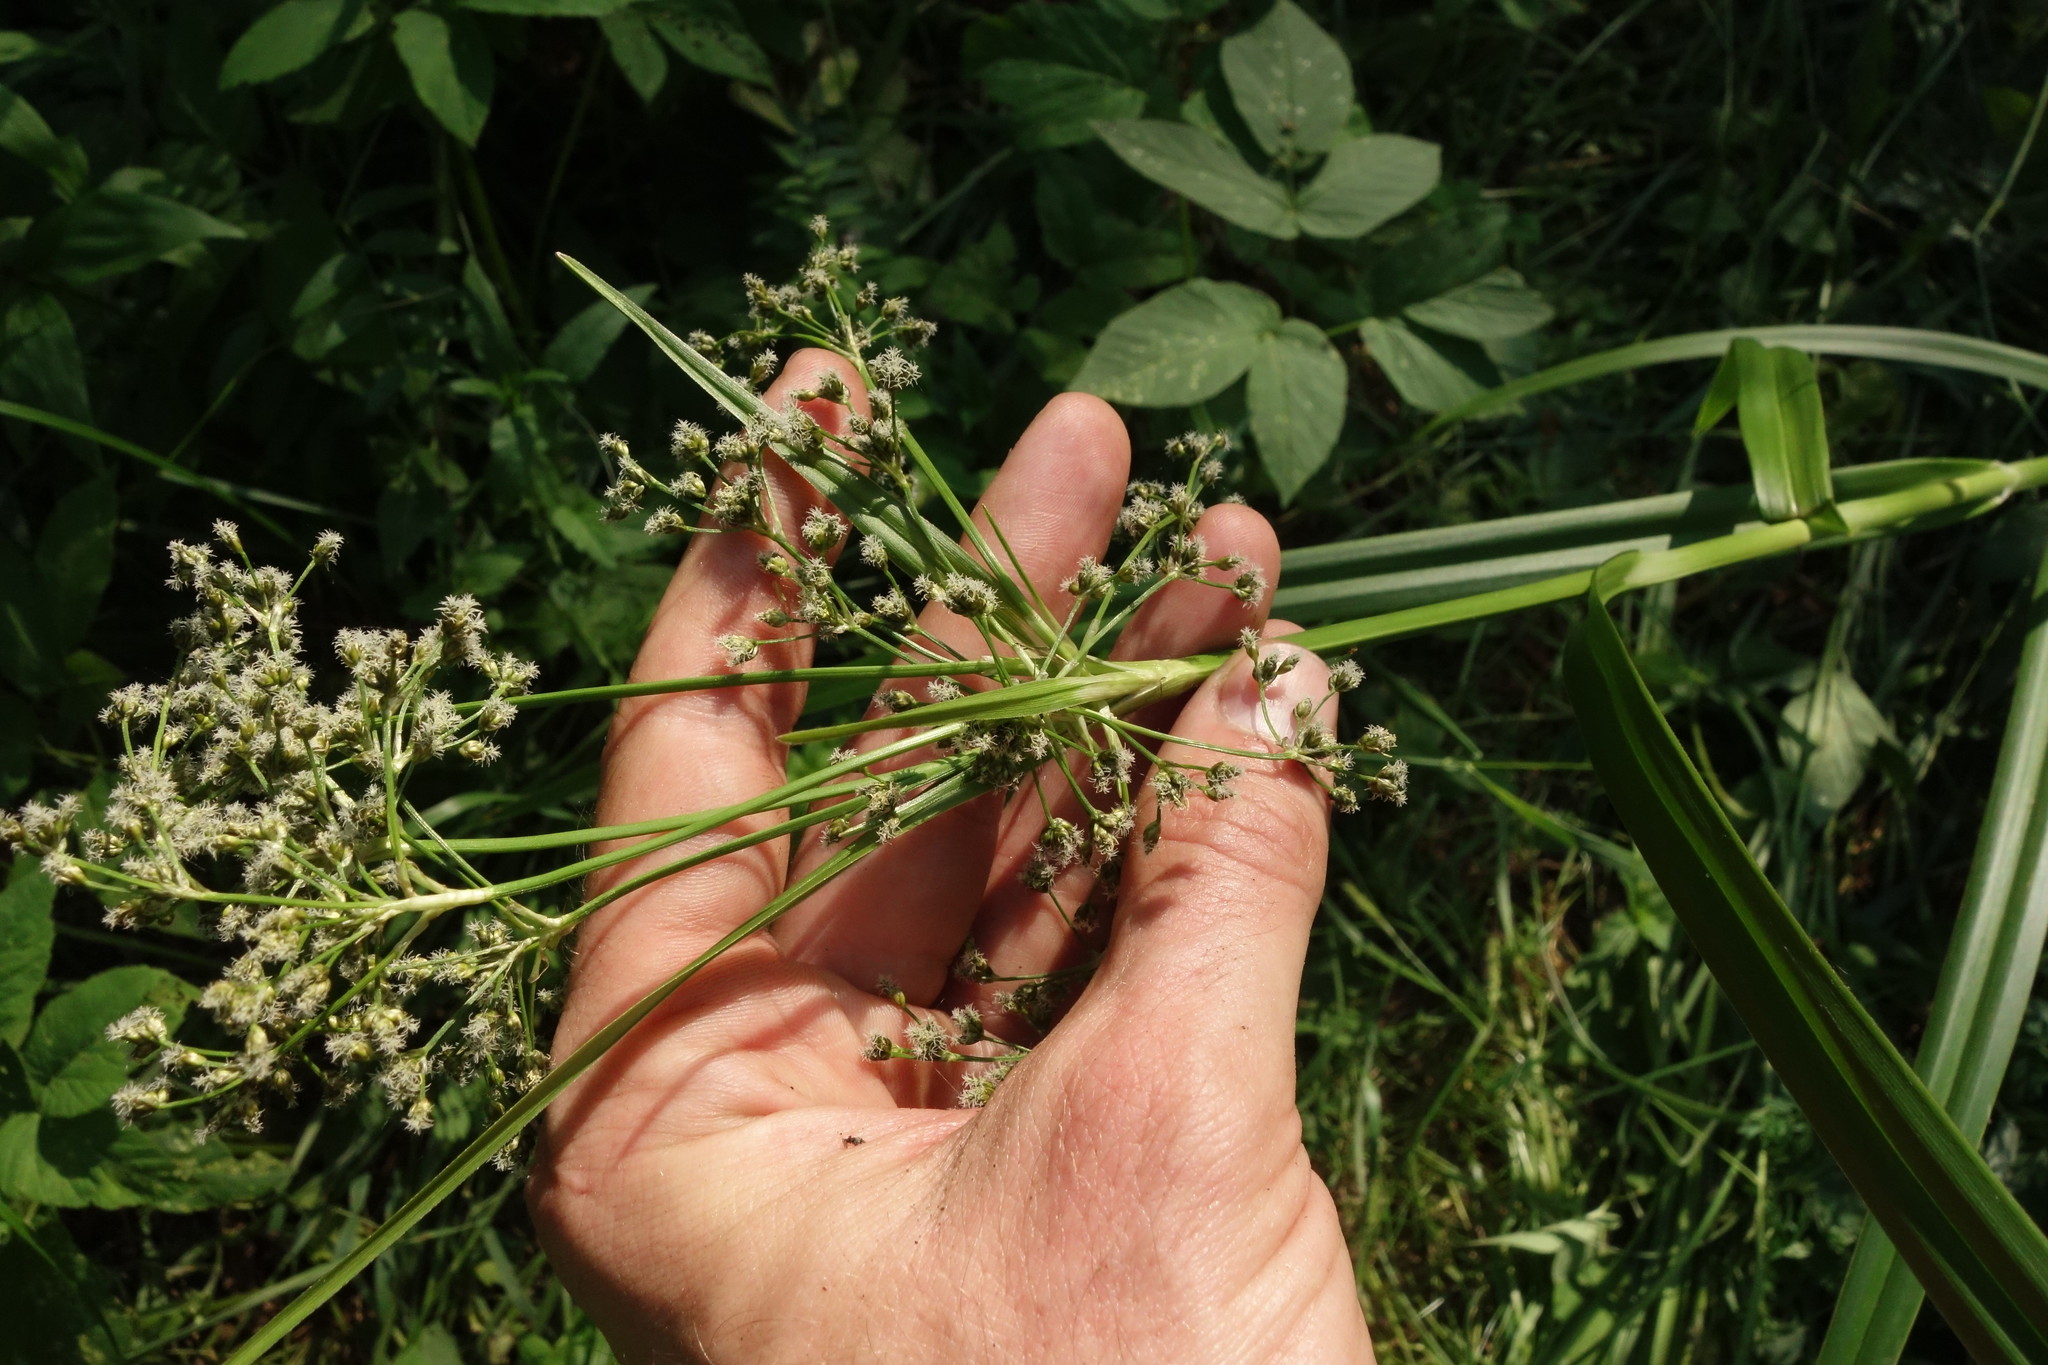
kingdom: Plantae
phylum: Tracheophyta
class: Liliopsida
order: Poales
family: Cyperaceae
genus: Scirpus
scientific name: Scirpus sylvaticus
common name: Wood club-rush
